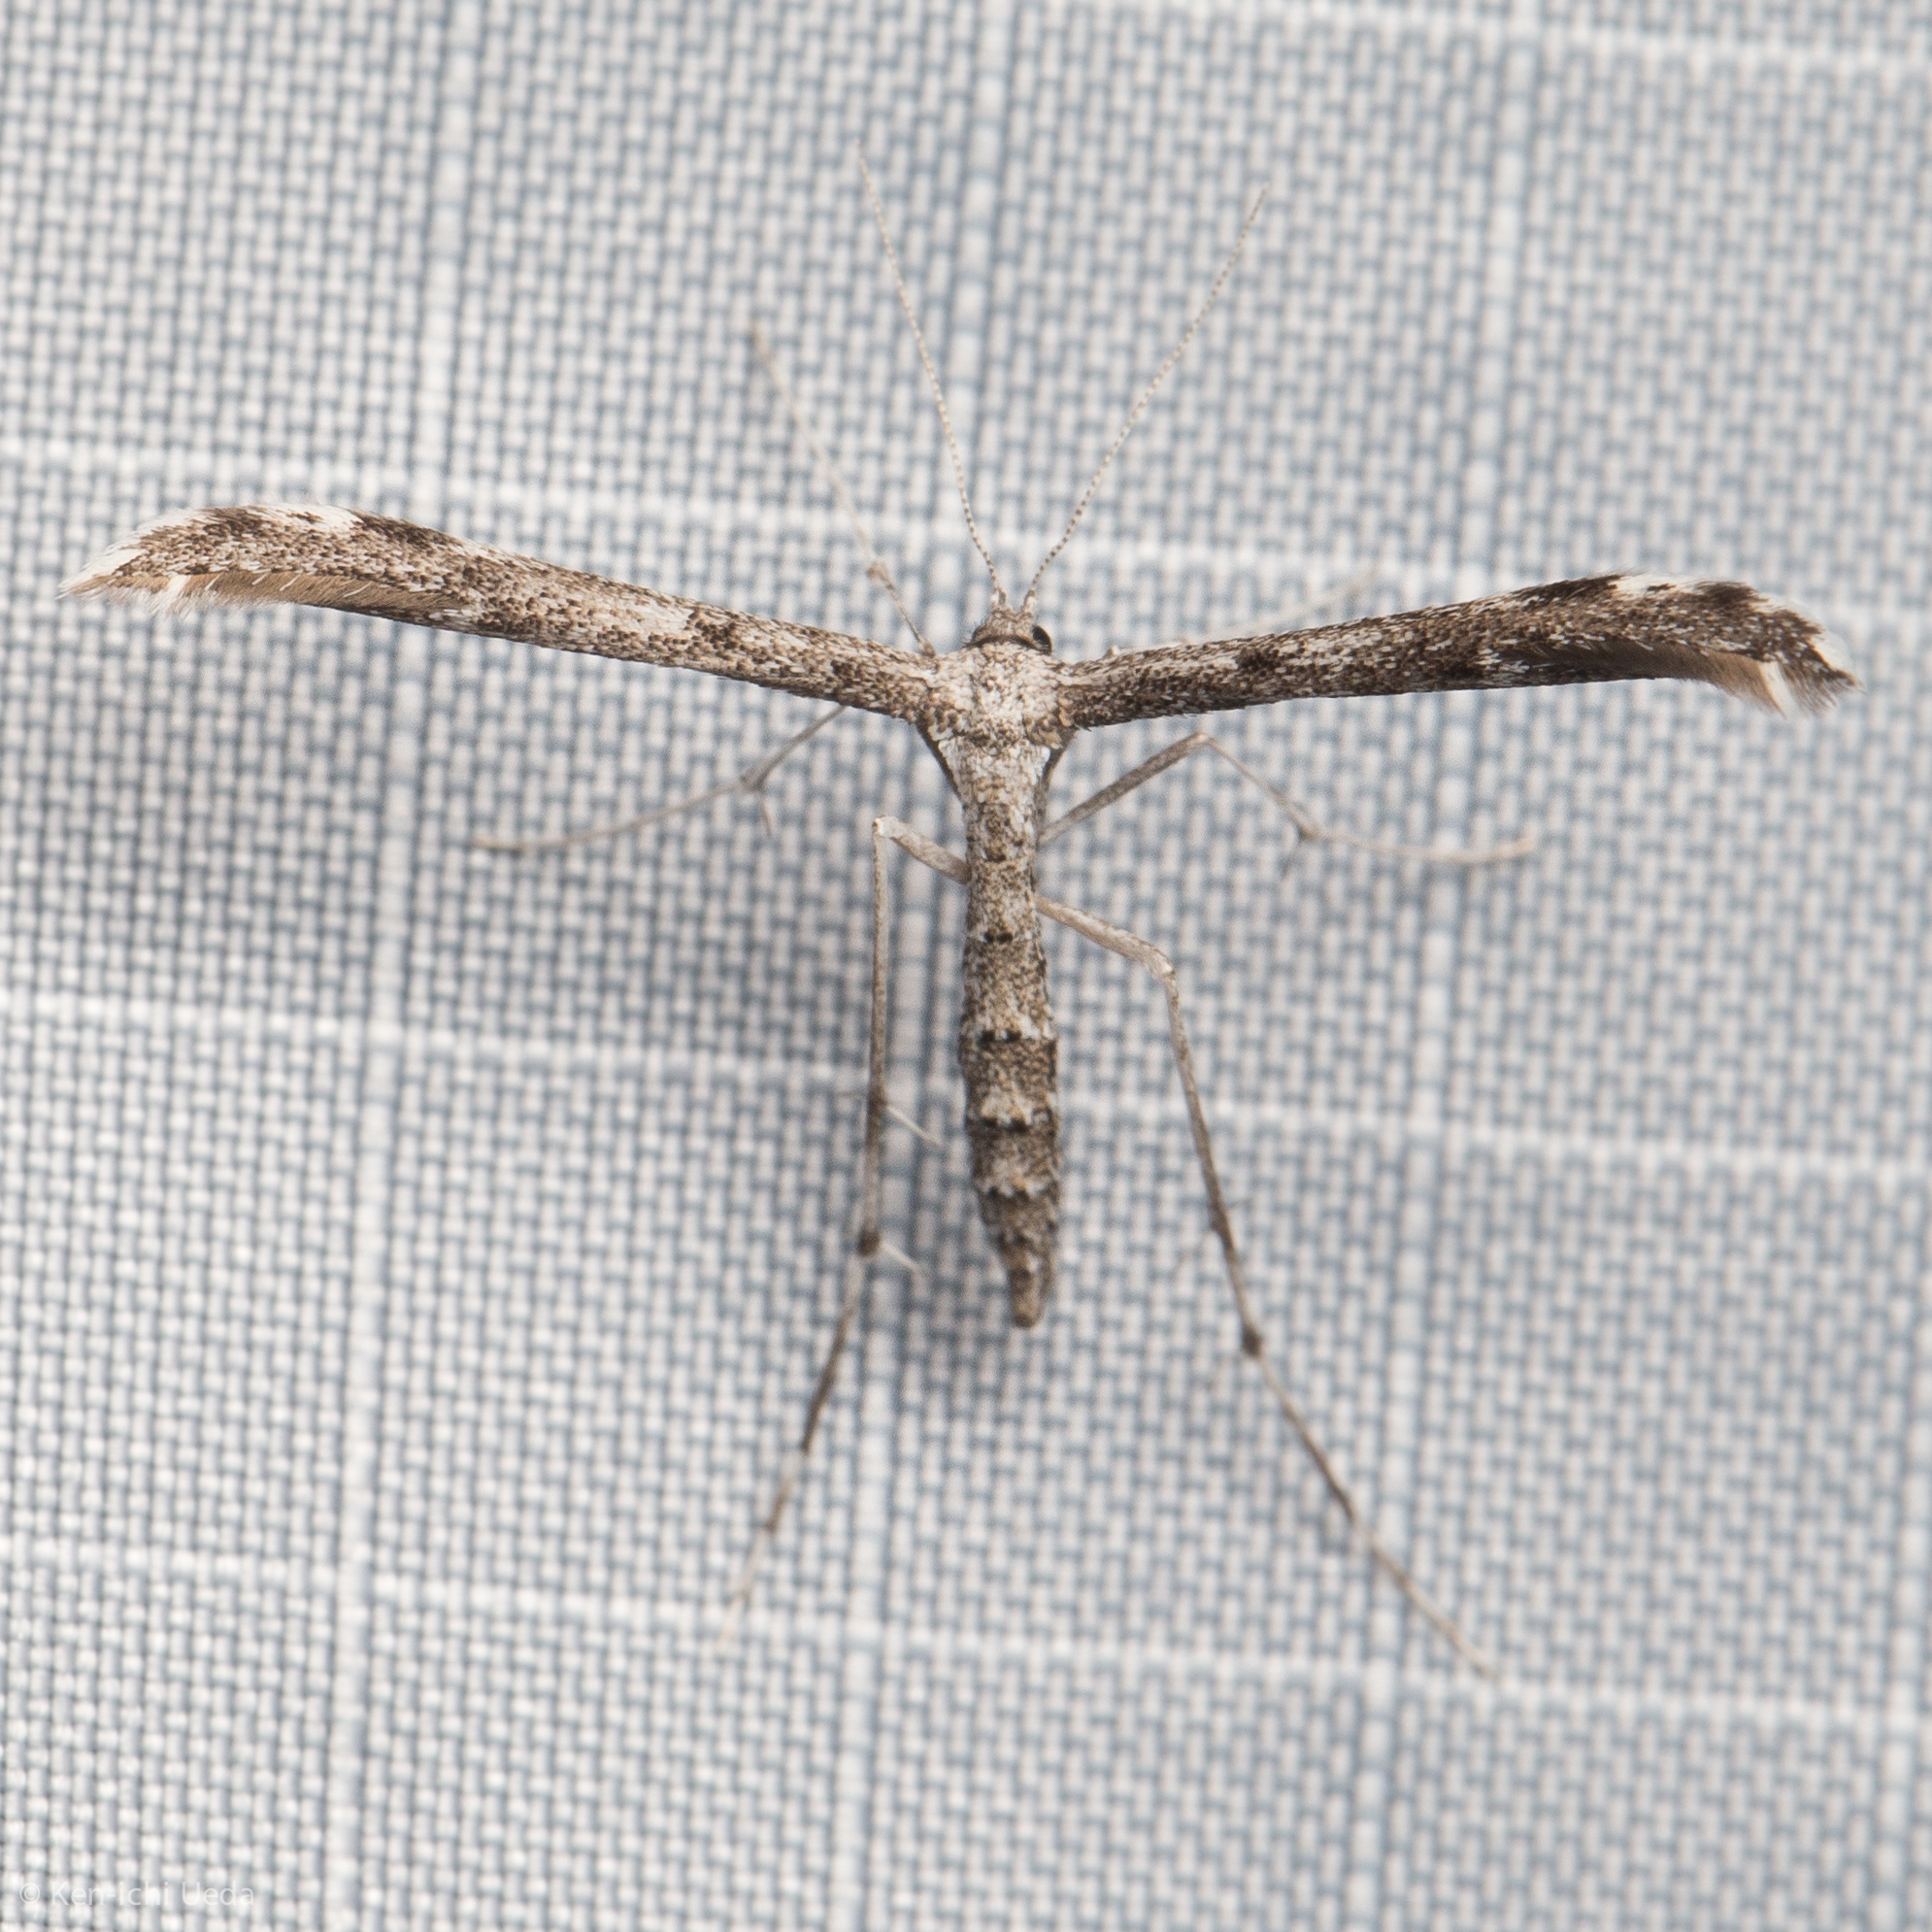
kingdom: Animalia
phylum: Arthropoda
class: Insecta
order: Lepidoptera
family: Pterophoridae
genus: Hellinsia
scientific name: Hellinsia inquinatus
